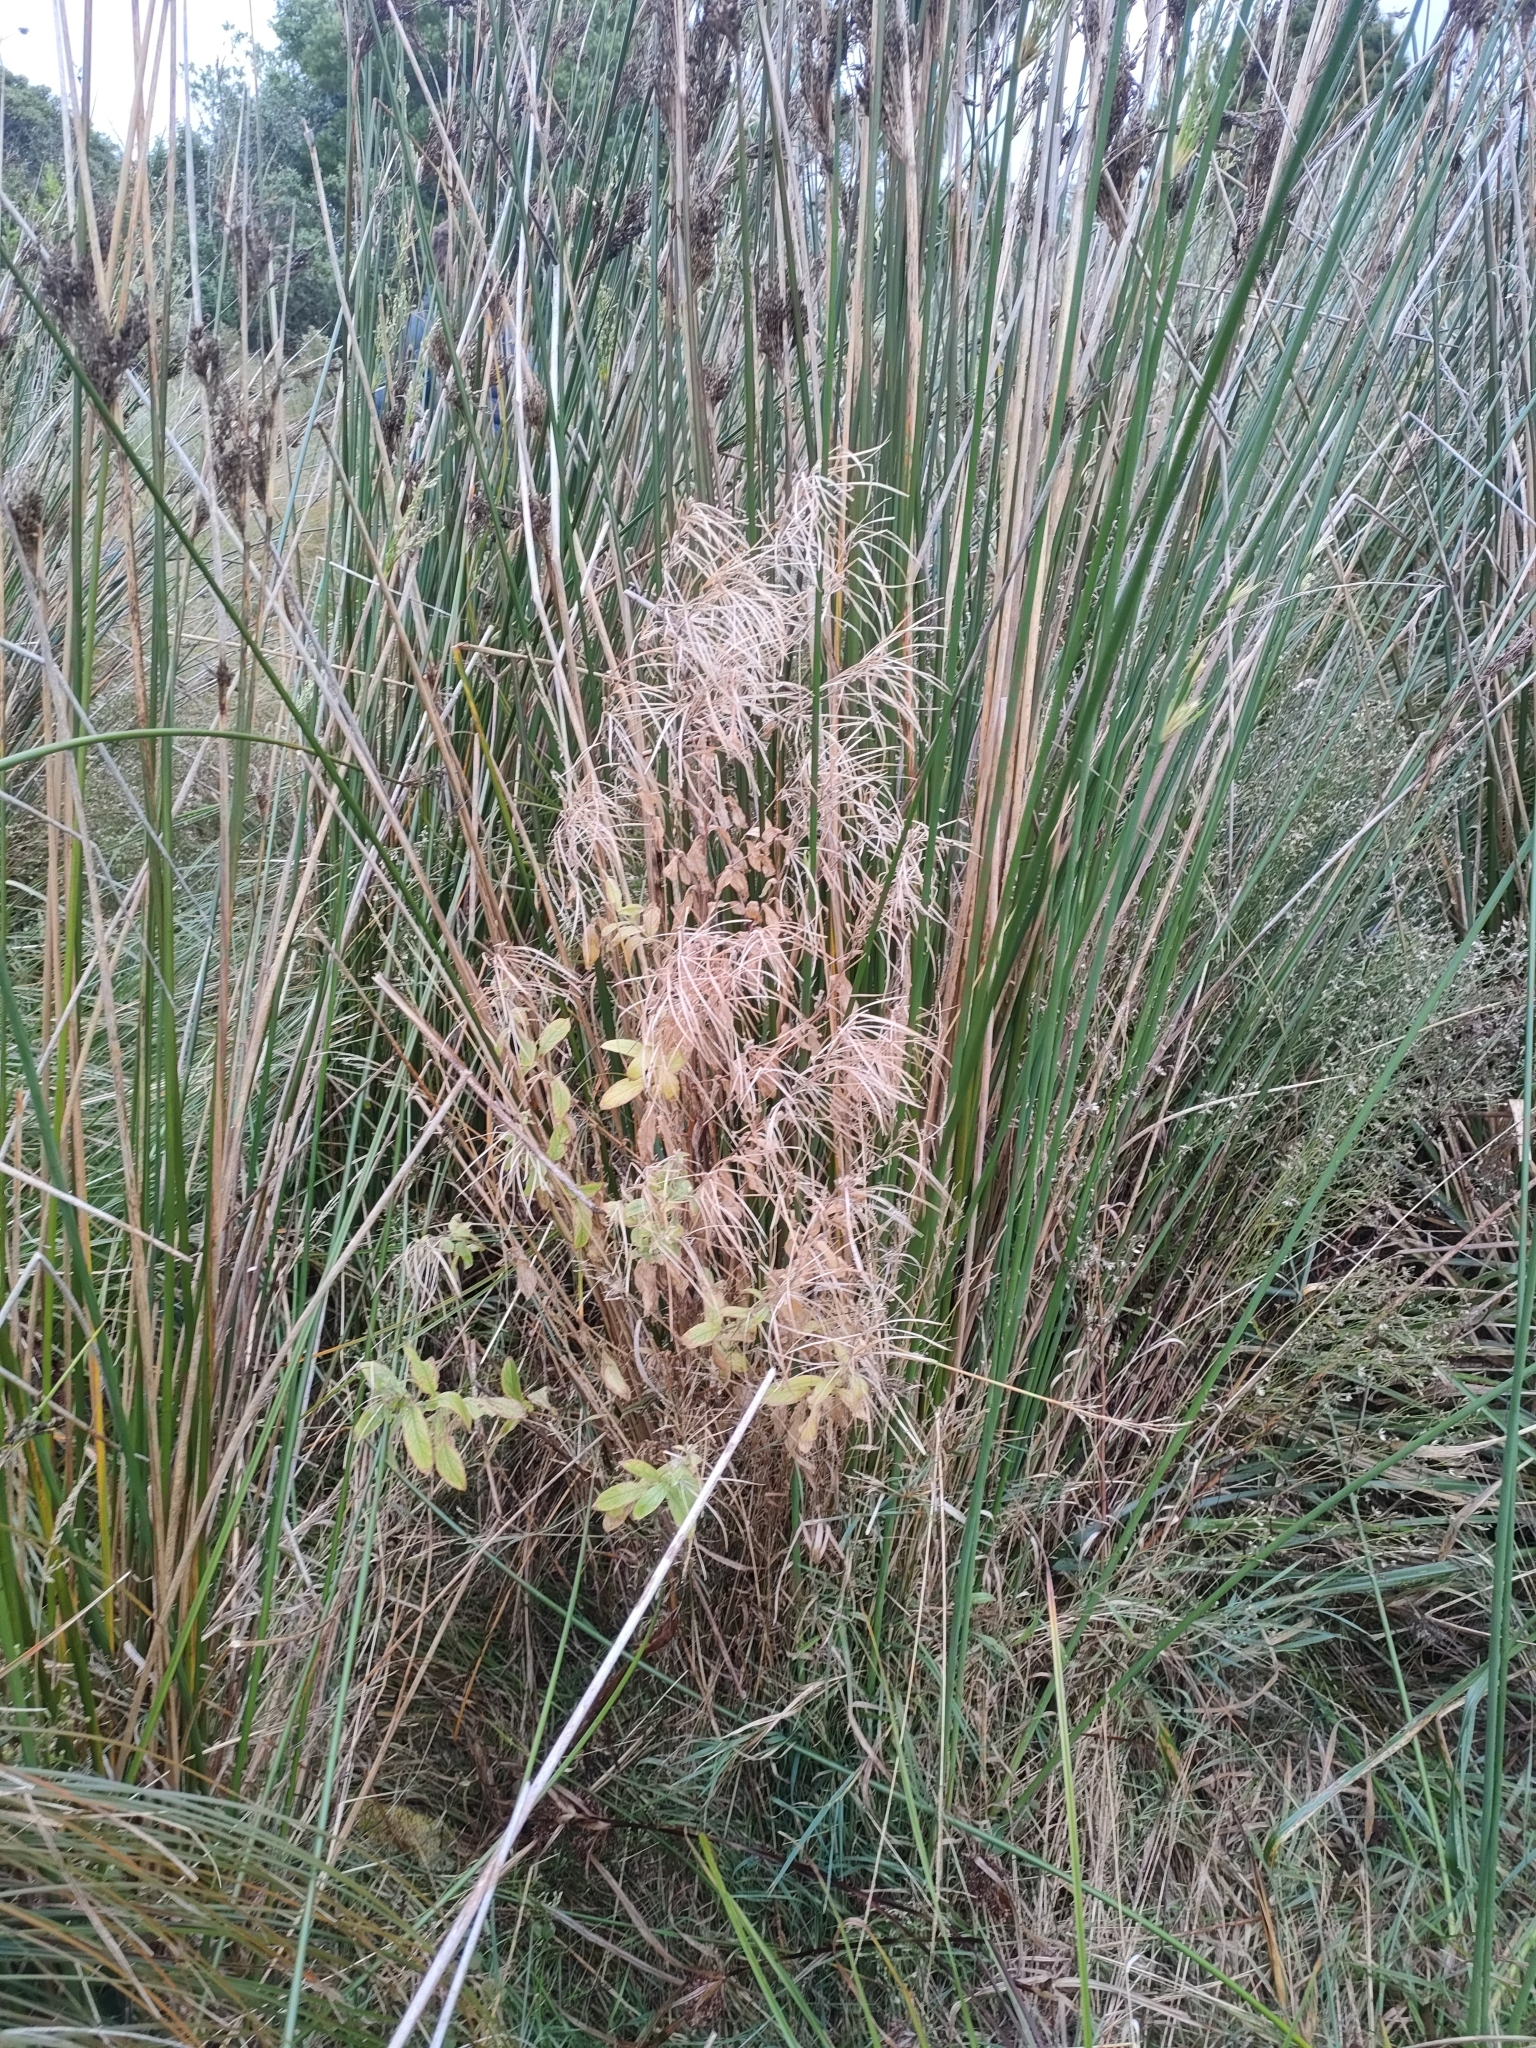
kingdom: Plantae
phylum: Tracheophyta
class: Magnoliopsida
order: Myrtales
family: Onagraceae
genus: Epilobium
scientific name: Epilobium hirsutum
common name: Great willowherb
